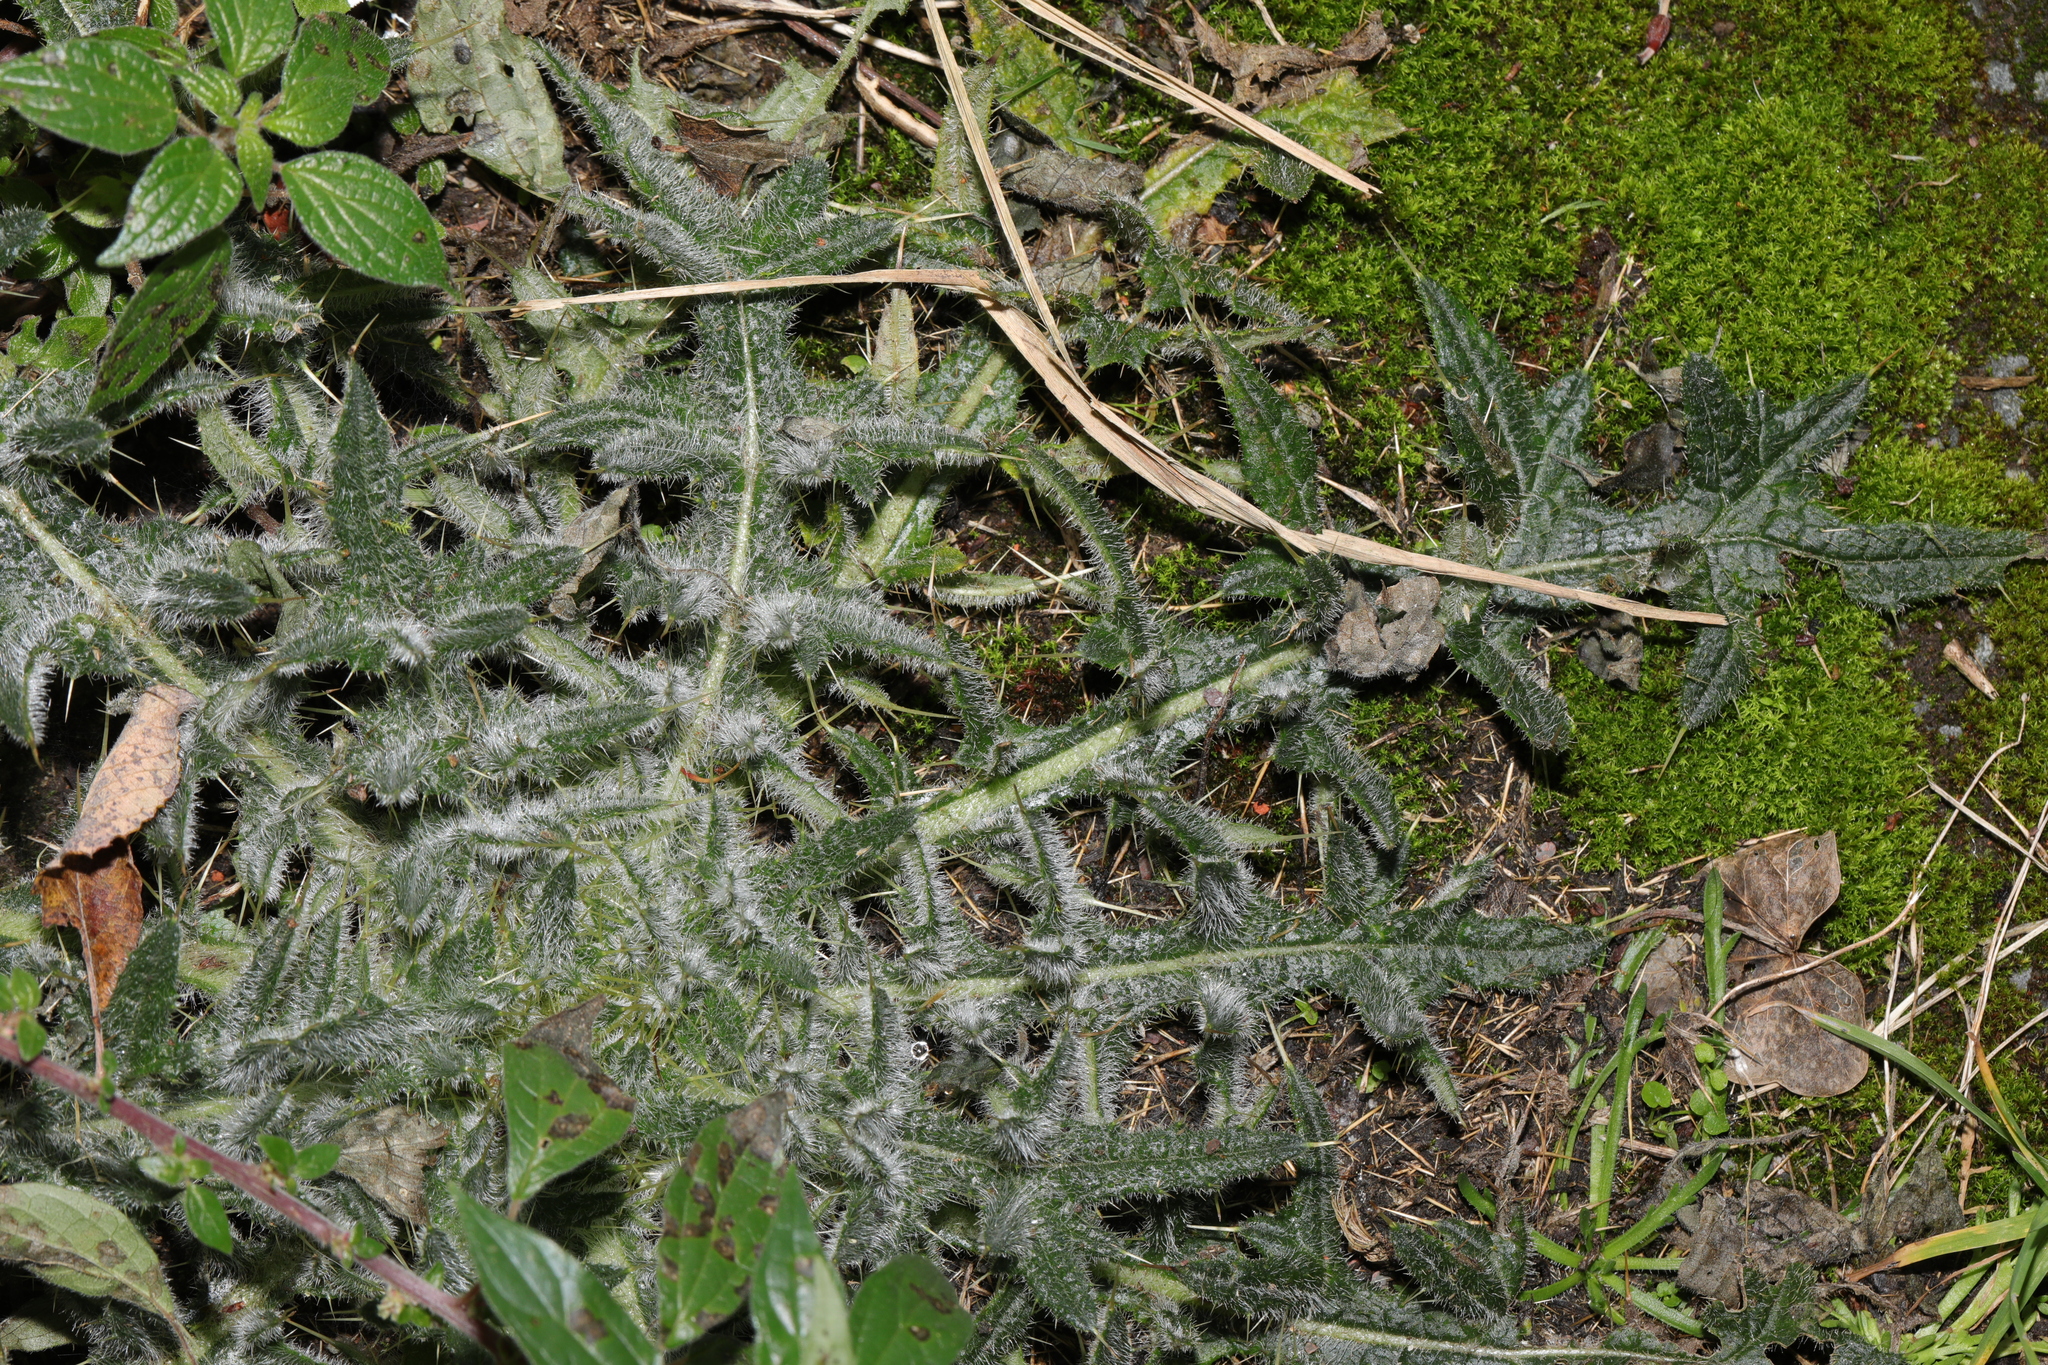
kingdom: Plantae
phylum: Tracheophyta
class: Magnoliopsida
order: Asterales
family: Asteraceae
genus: Cirsium
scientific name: Cirsium vulgare
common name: Bull thistle
